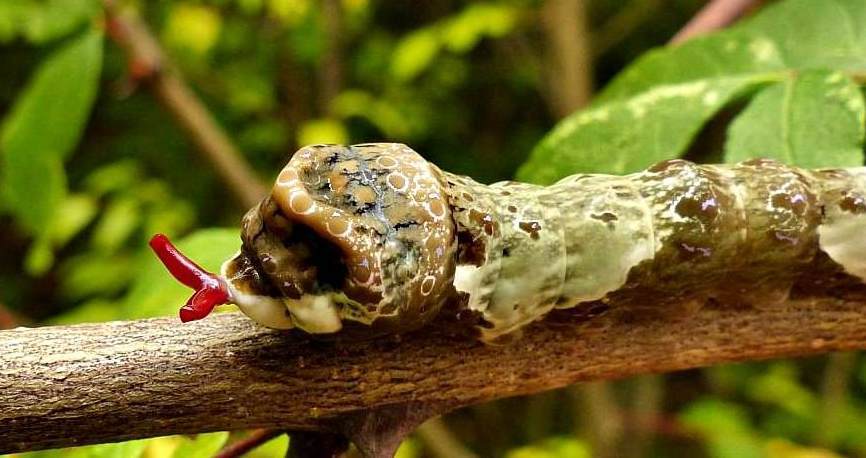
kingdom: Animalia
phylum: Arthropoda
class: Insecta
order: Lepidoptera
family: Papilionidae
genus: Papilio
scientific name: Papilio cresphontes
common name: Giant swallowtail
